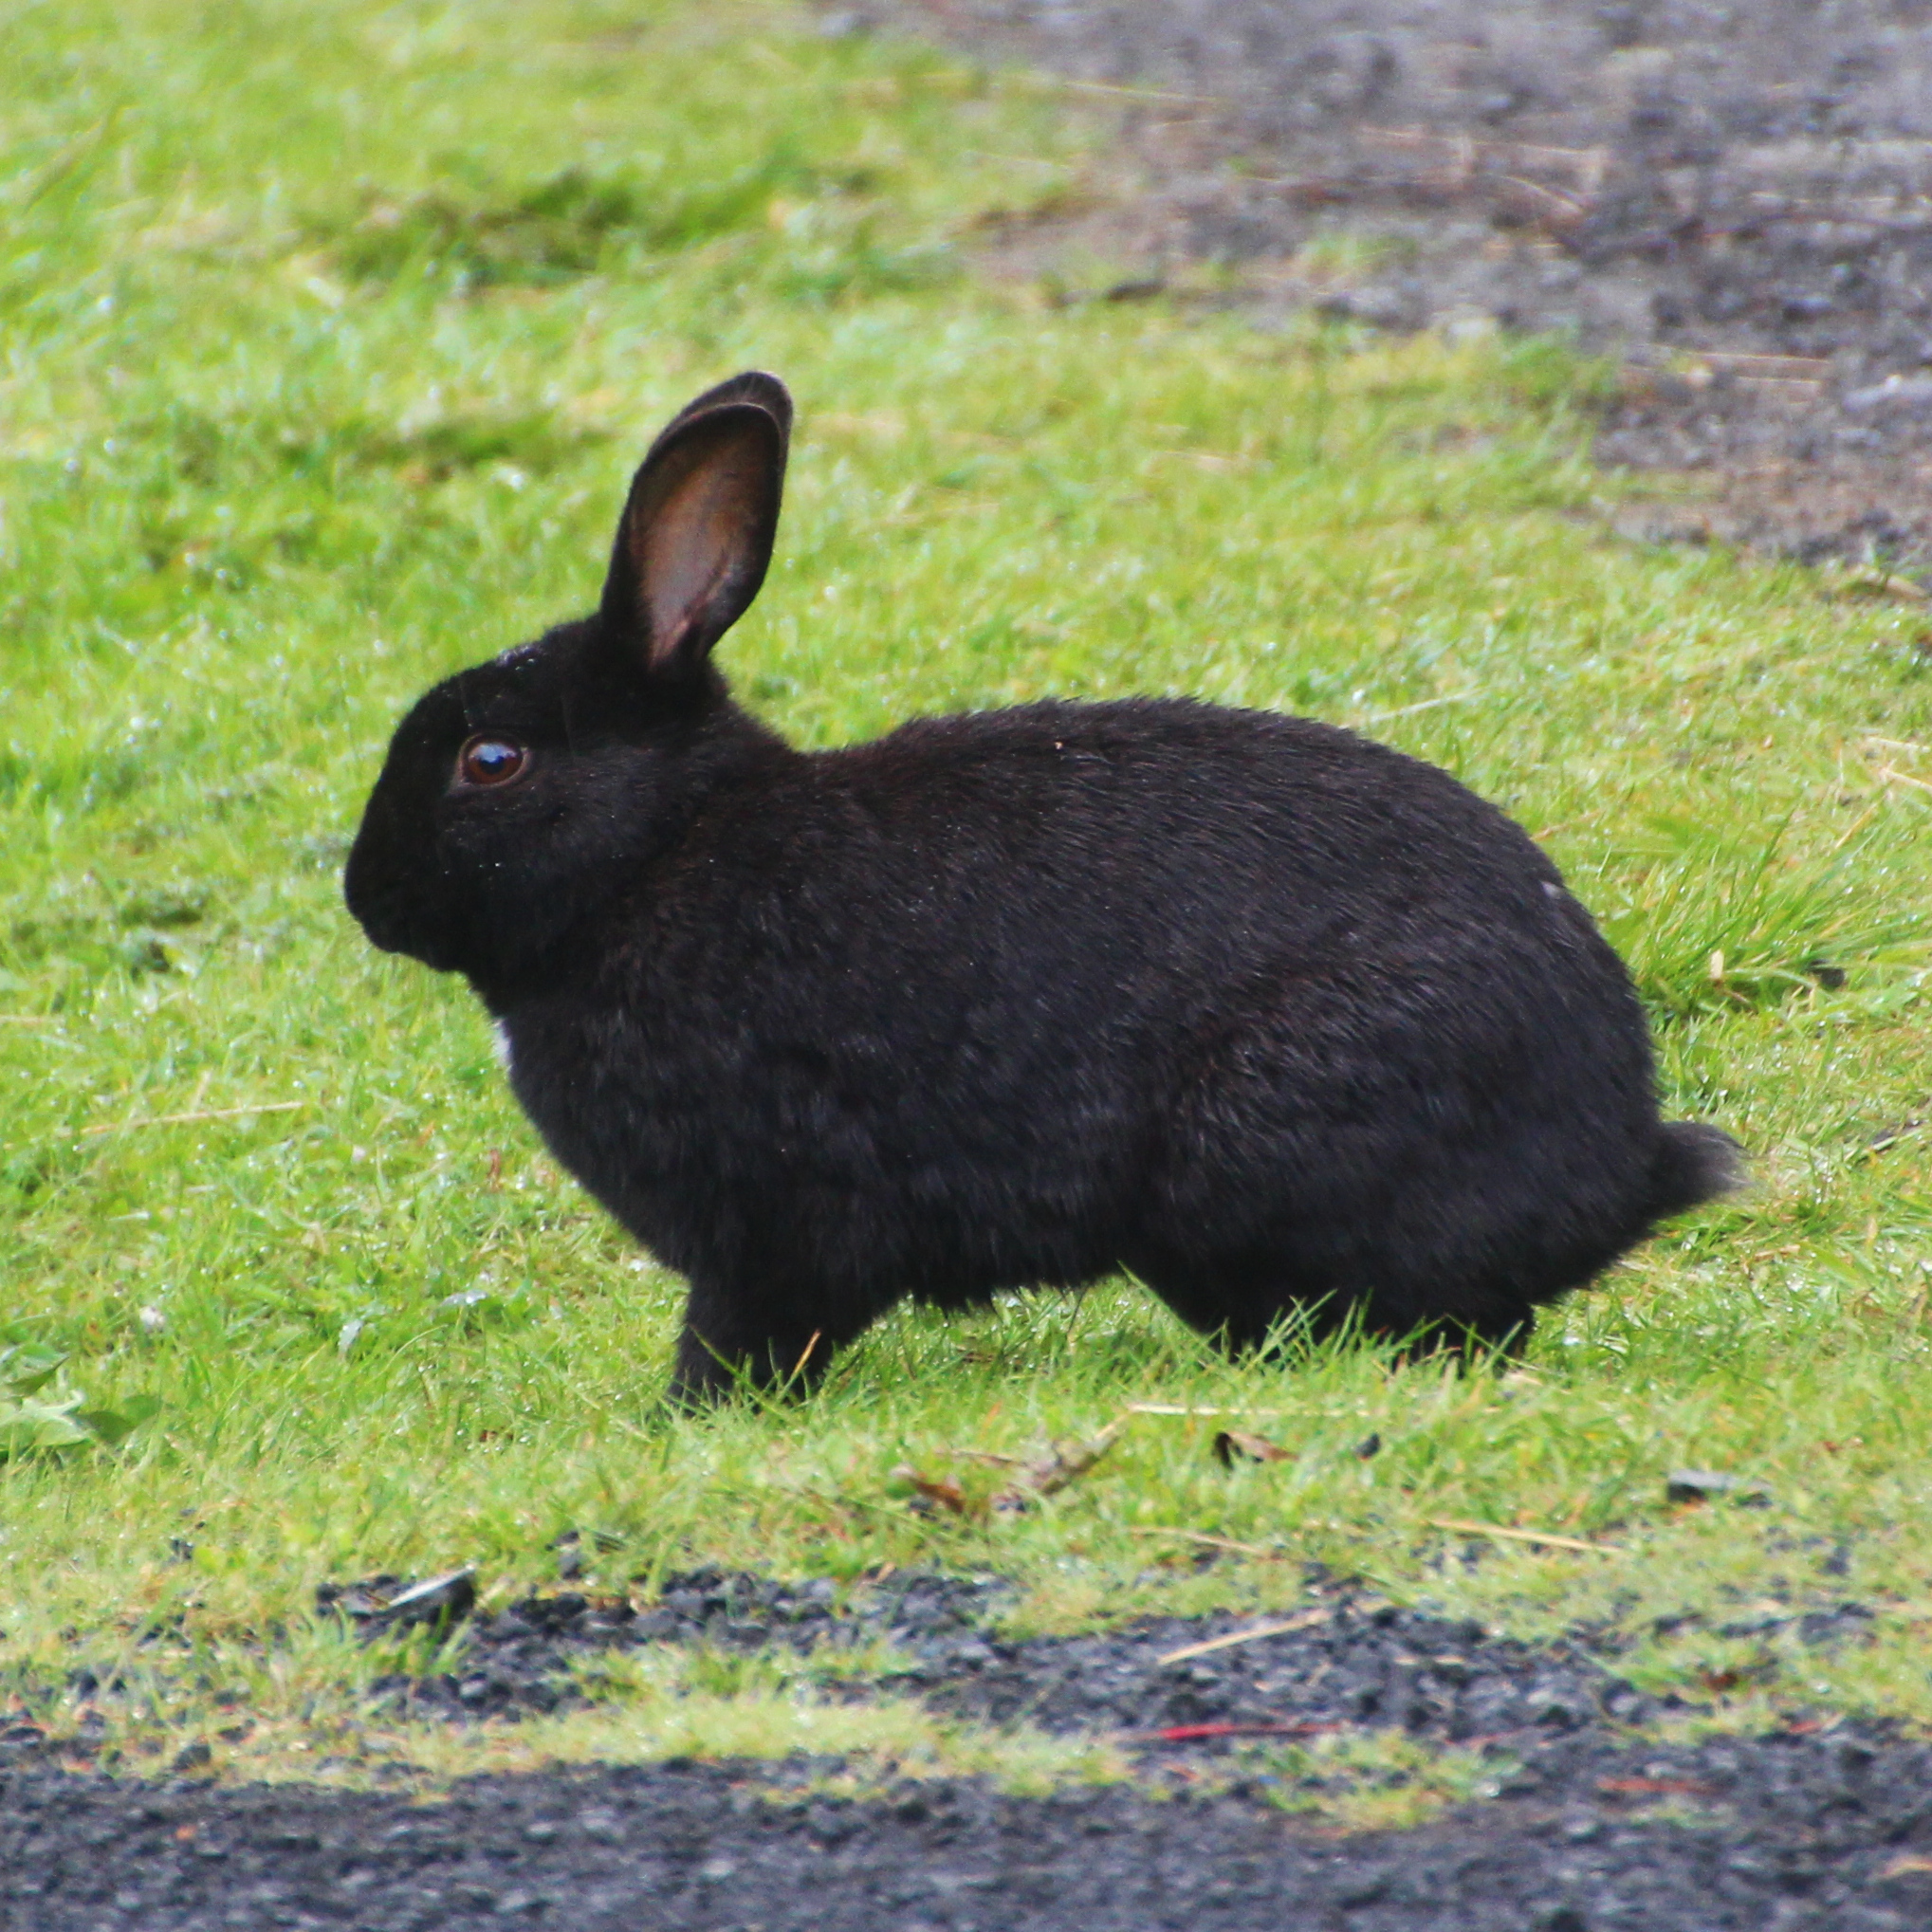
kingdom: Animalia
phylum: Chordata
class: Mammalia
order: Lagomorpha
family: Leporidae
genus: Oryctolagus
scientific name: Oryctolagus cuniculus
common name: European rabbit
